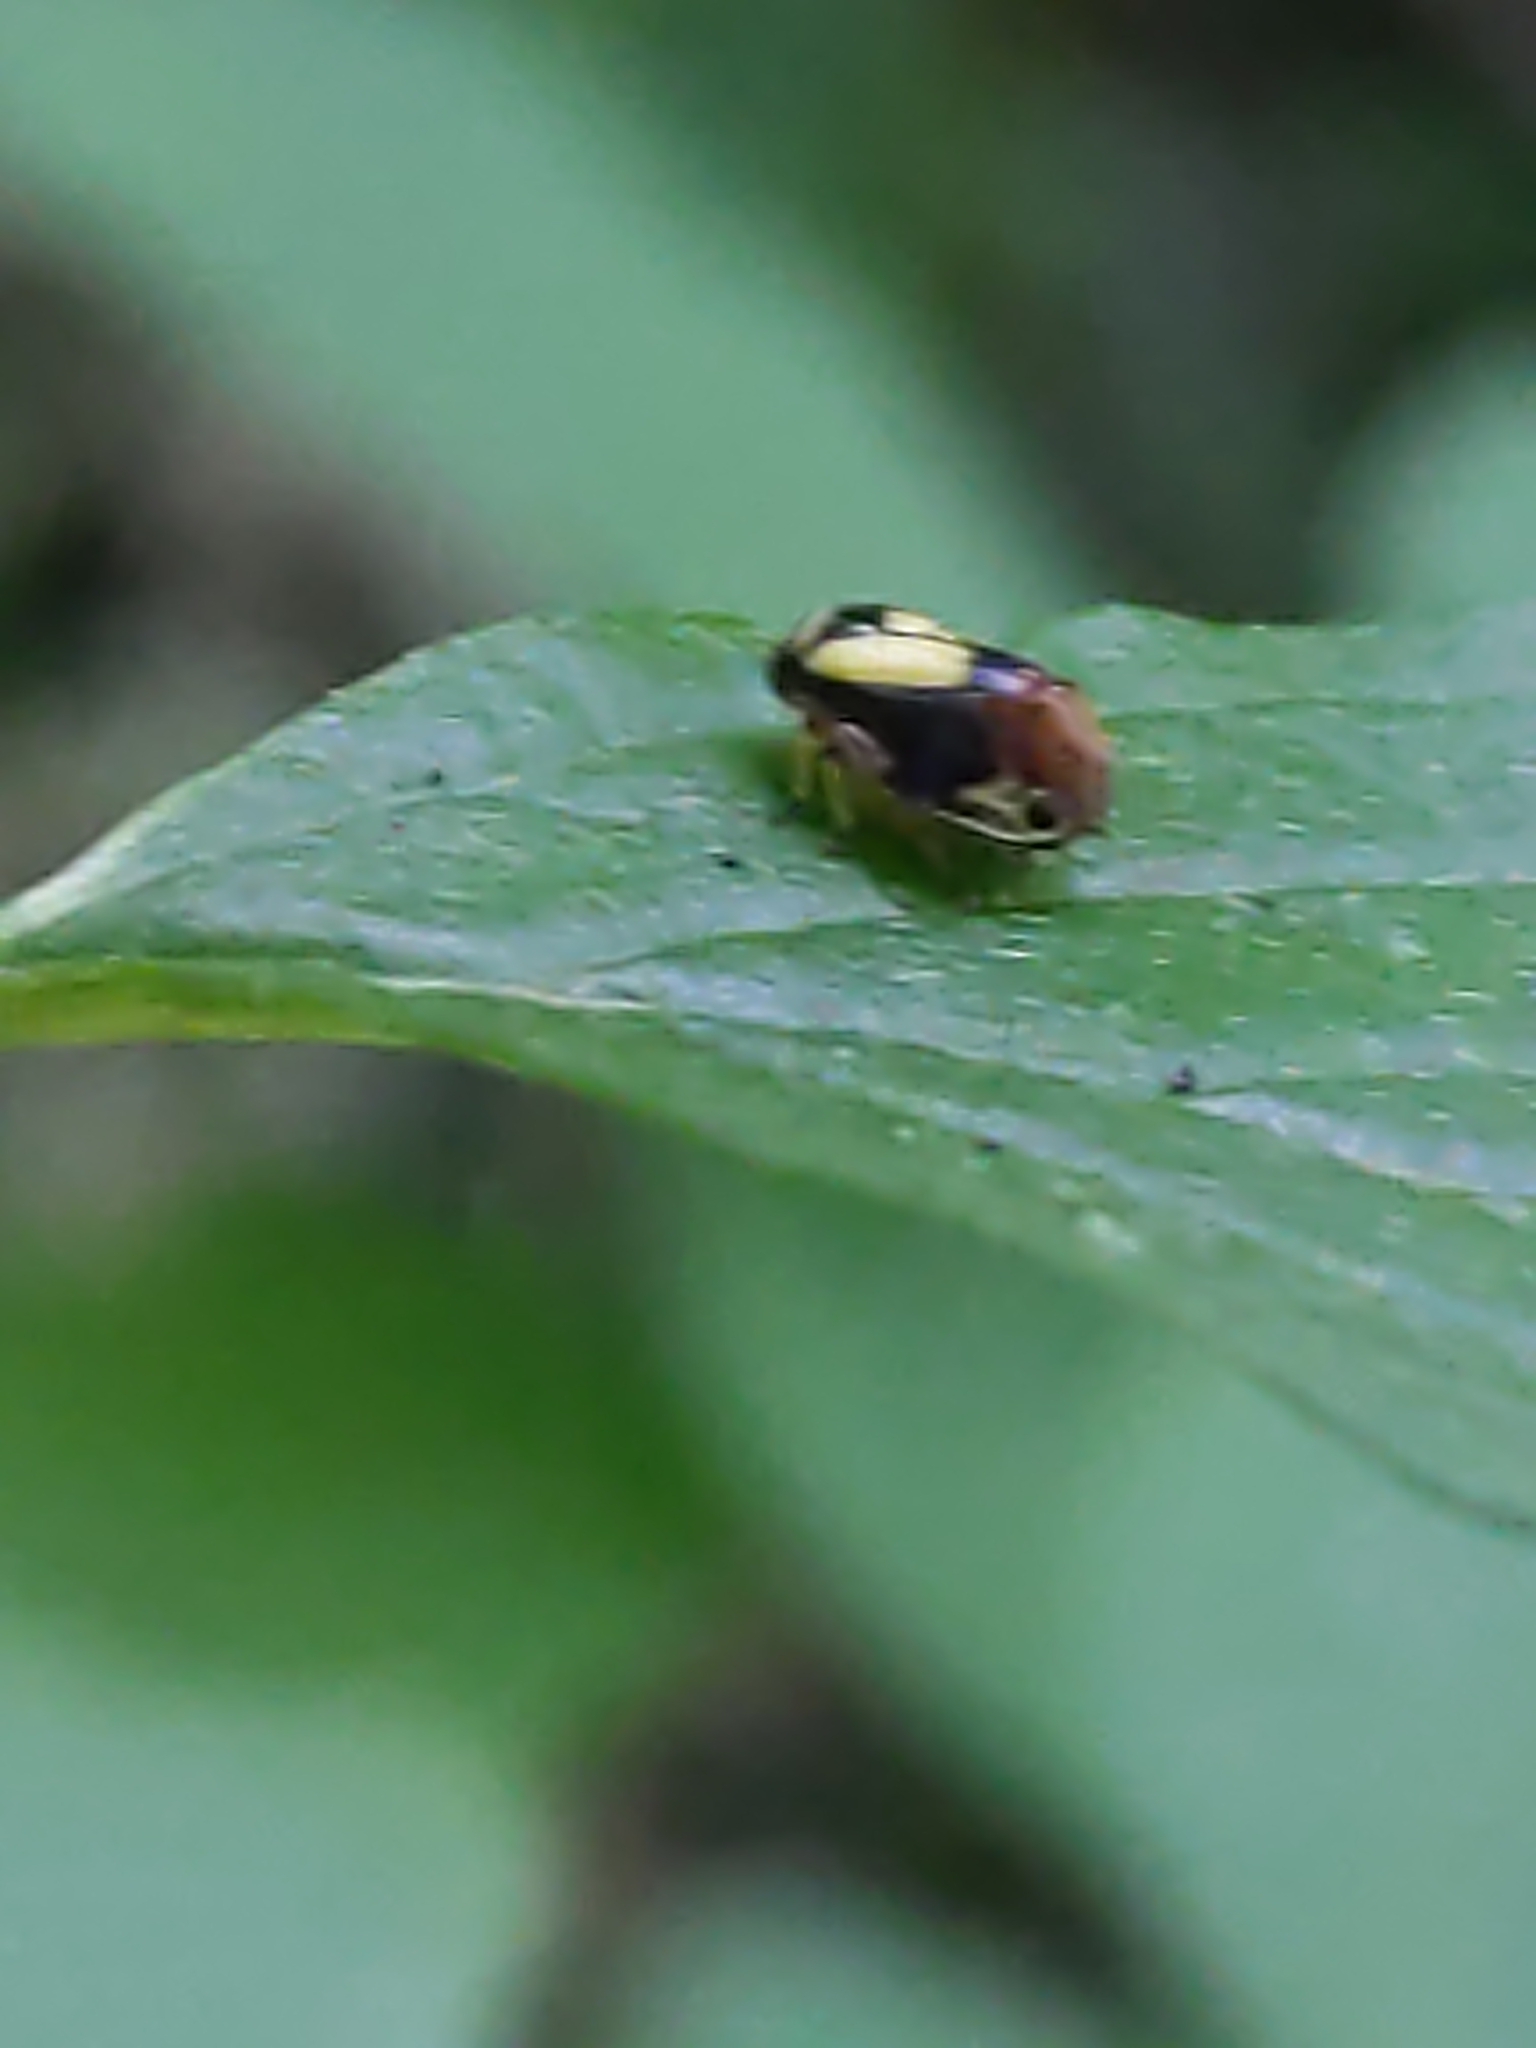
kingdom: Animalia
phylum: Arthropoda
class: Insecta
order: Hemiptera
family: Clastopteridae
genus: Clastoptera
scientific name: Clastoptera proteus
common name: Dogwood spittlebug
